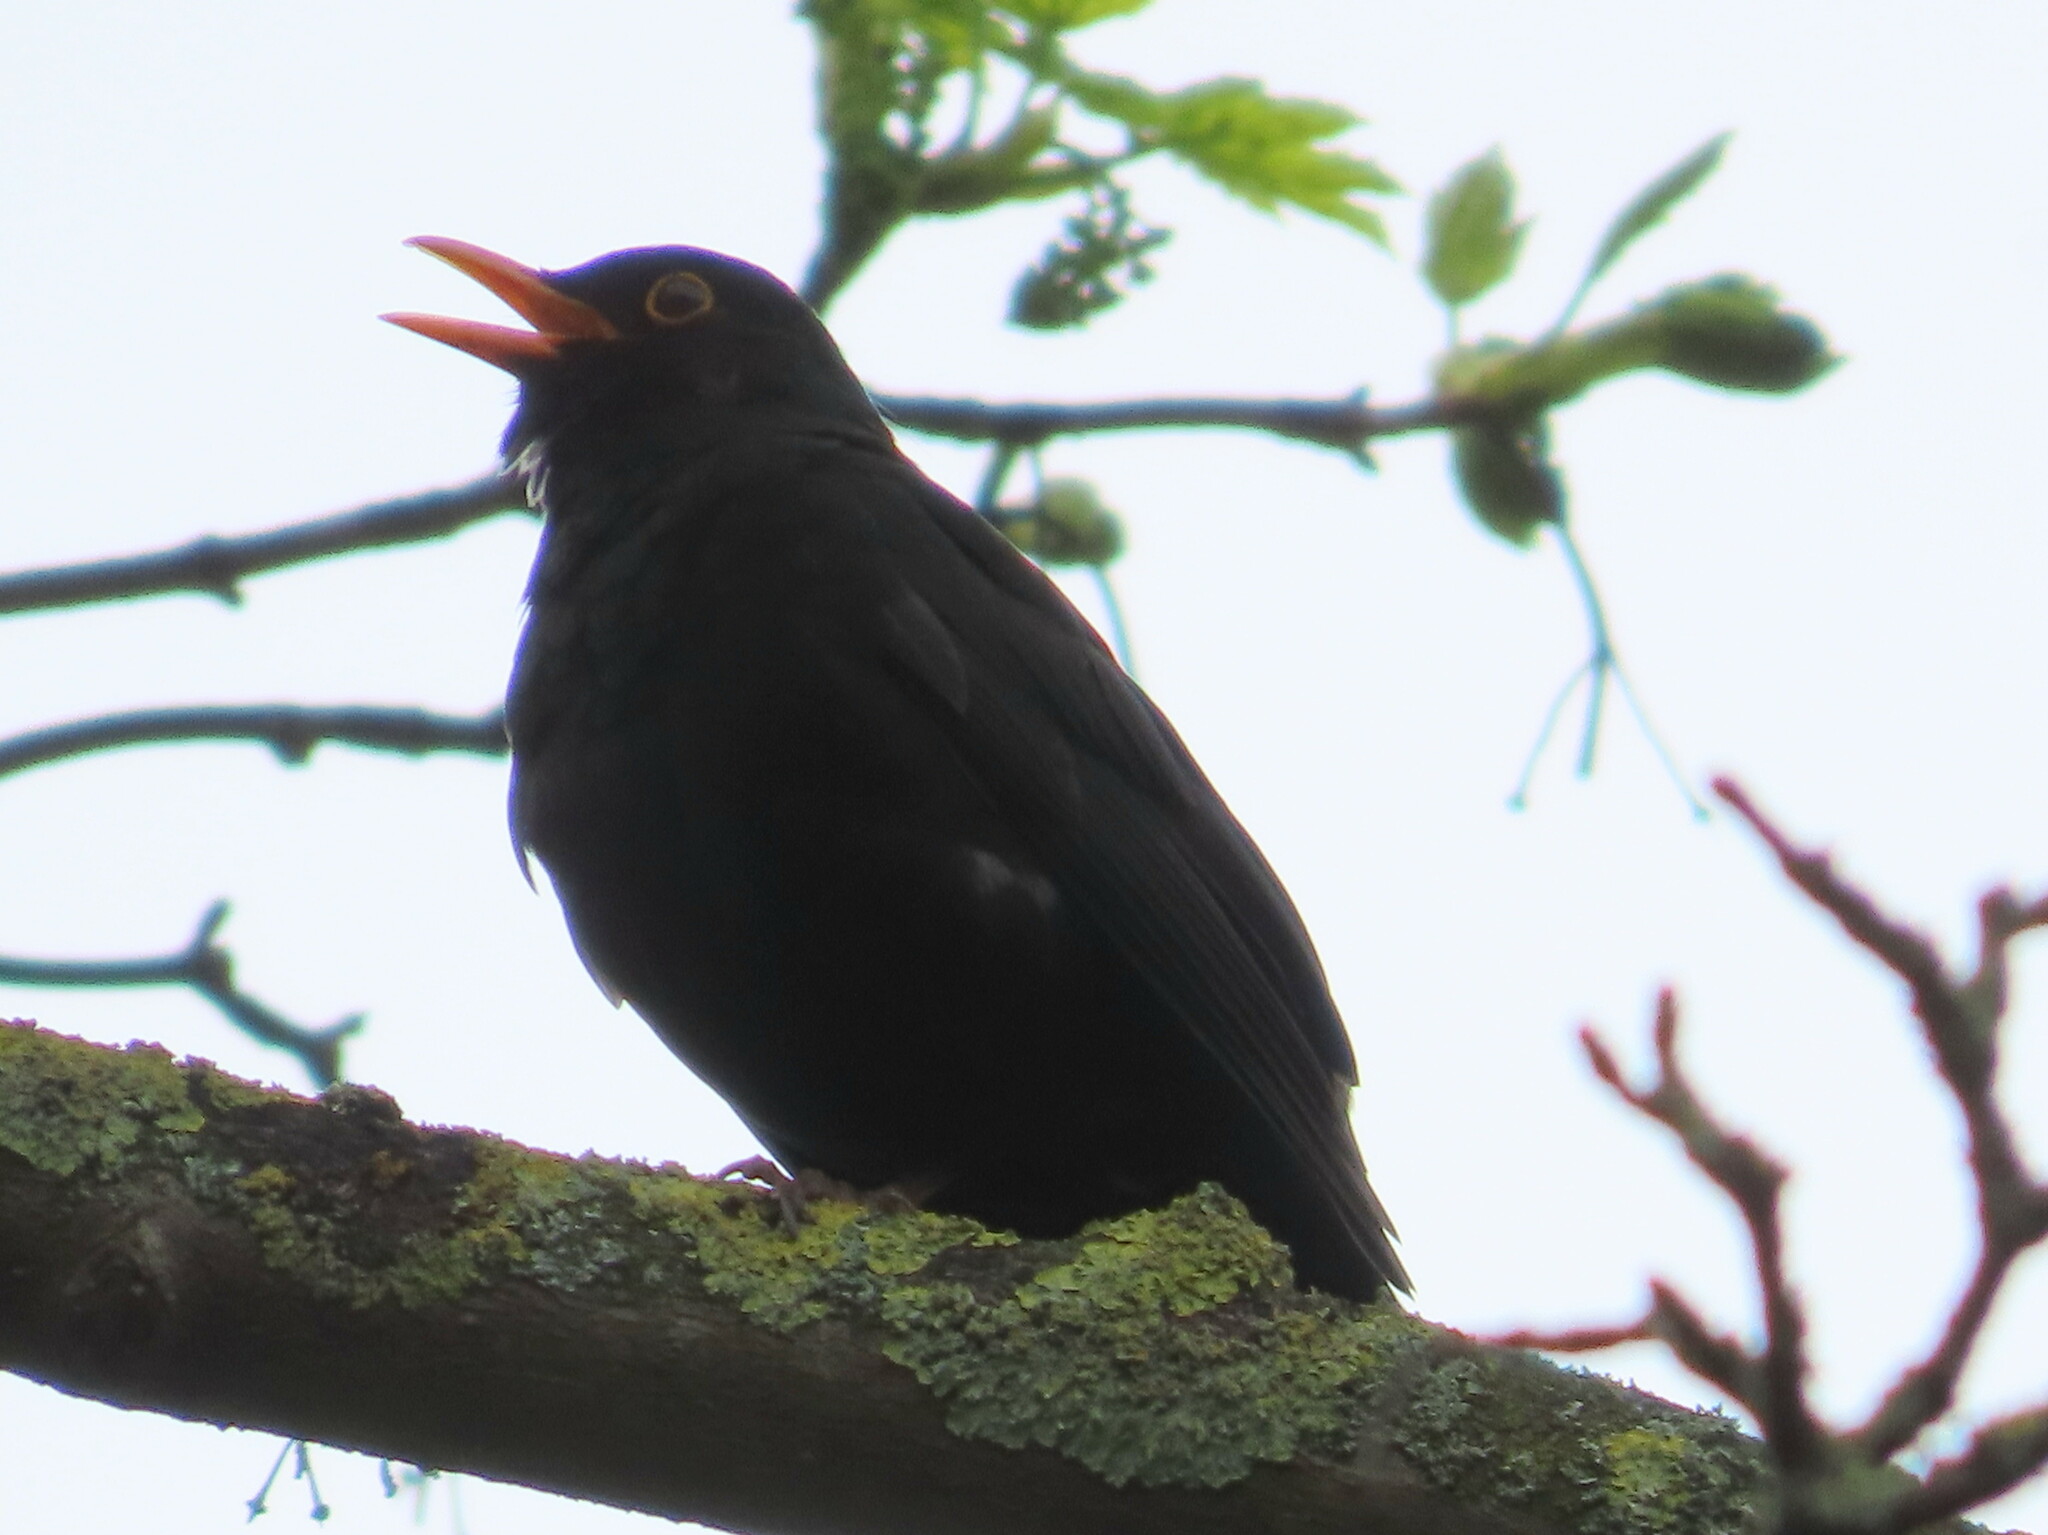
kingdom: Animalia
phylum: Chordata
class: Aves
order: Passeriformes
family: Turdidae
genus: Turdus
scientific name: Turdus merula
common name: Common blackbird
